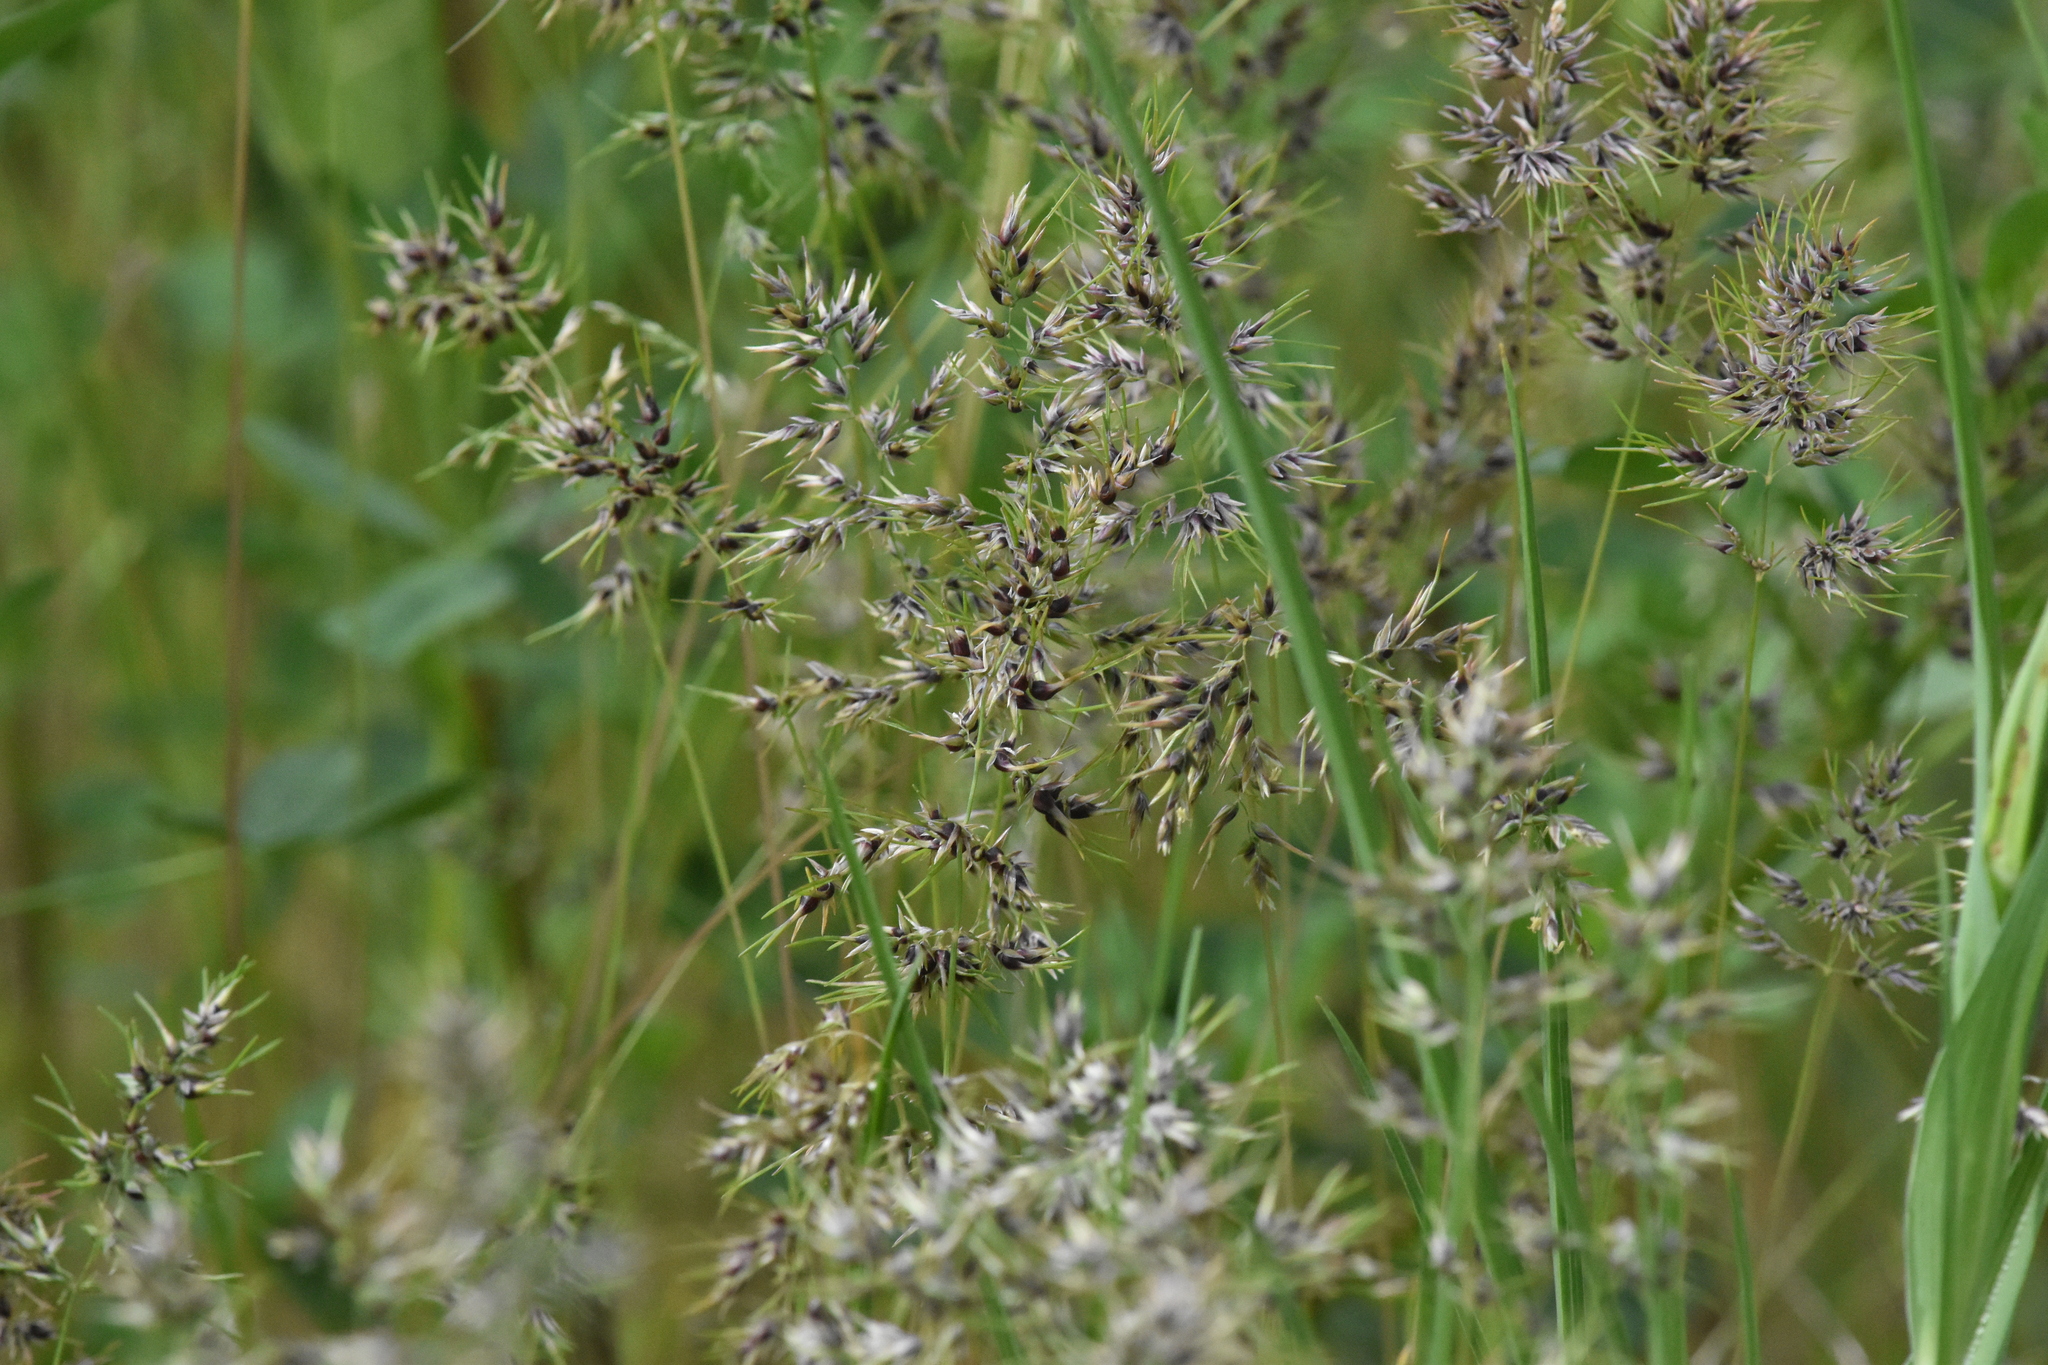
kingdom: Plantae
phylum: Tracheophyta
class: Liliopsida
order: Poales
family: Poaceae
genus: Poa
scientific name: Poa bulbosa
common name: Bulbous bluegrass
